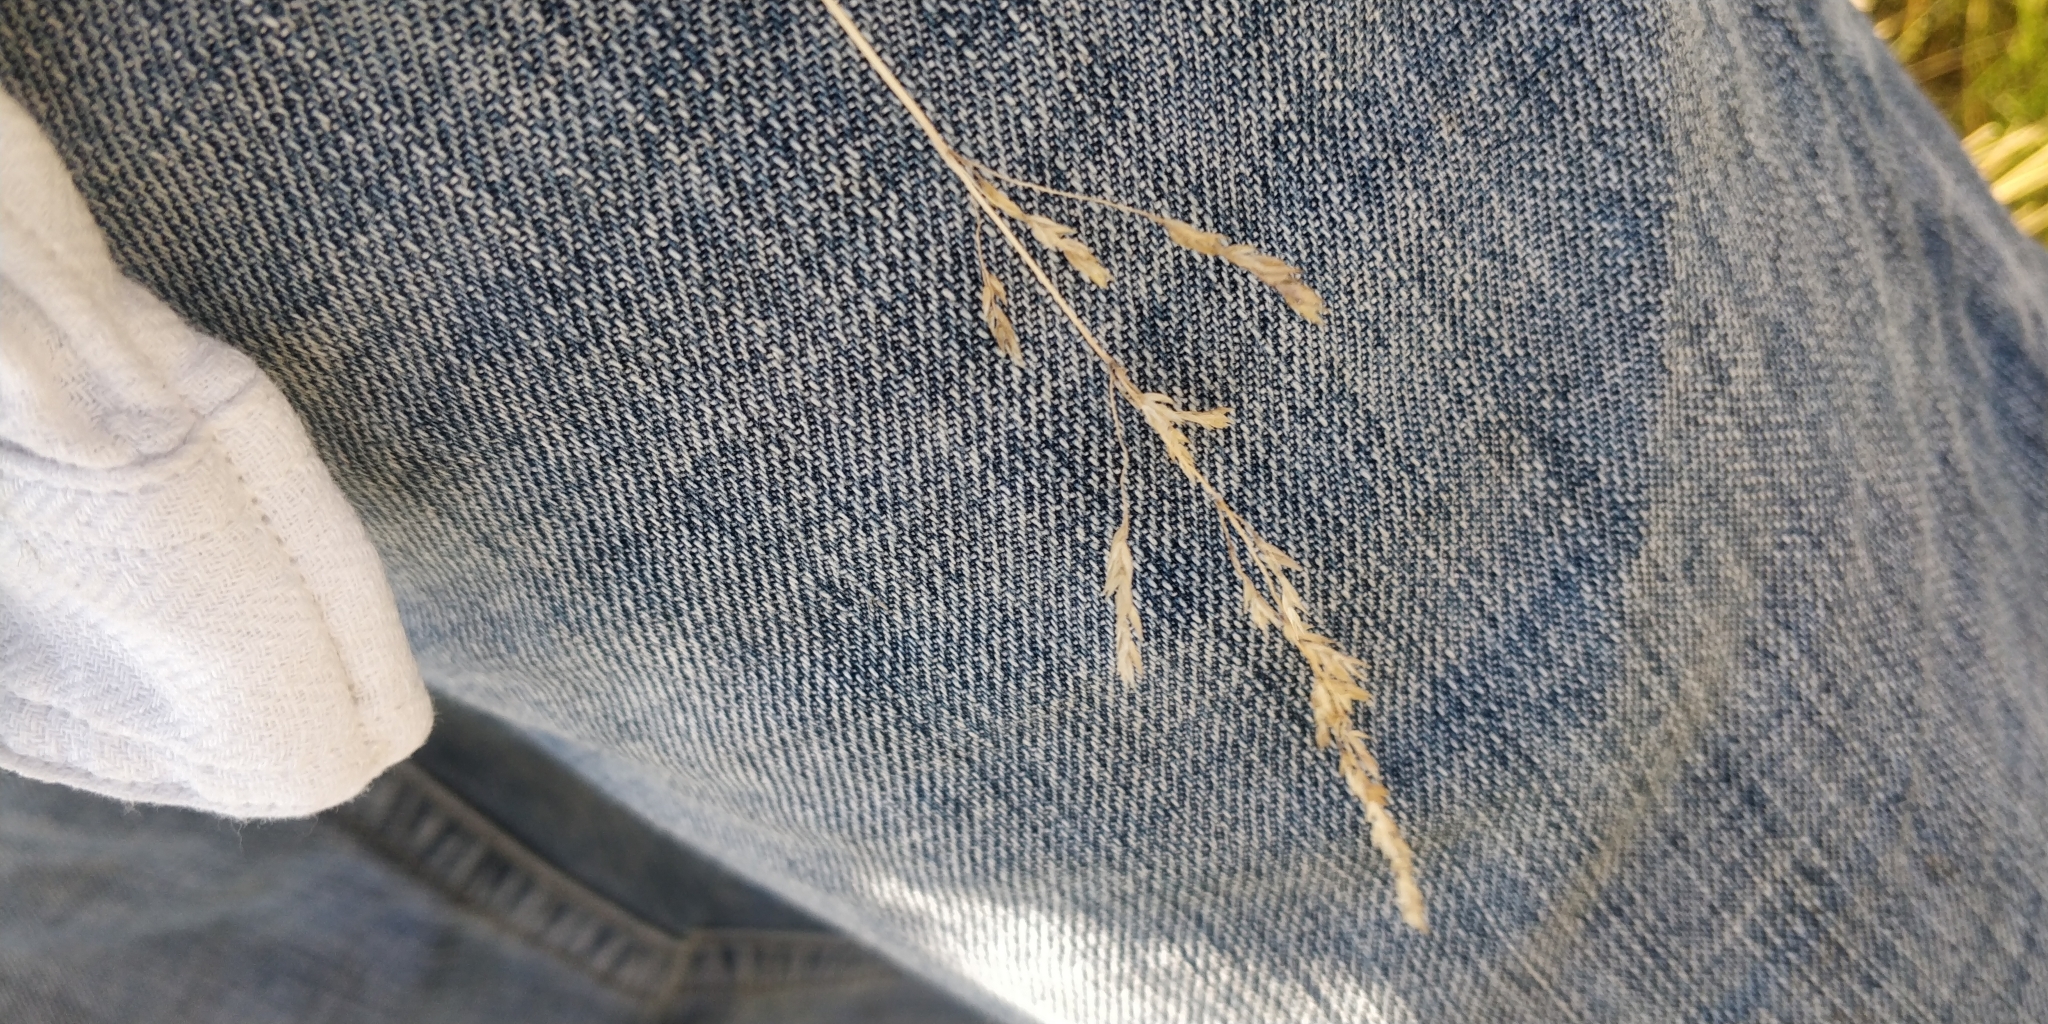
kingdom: Plantae
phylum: Tracheophyta
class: Liliopsida
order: Poales
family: Poaceae
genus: Poa
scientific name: Poa pratensis
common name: Kentucky bluegrass
